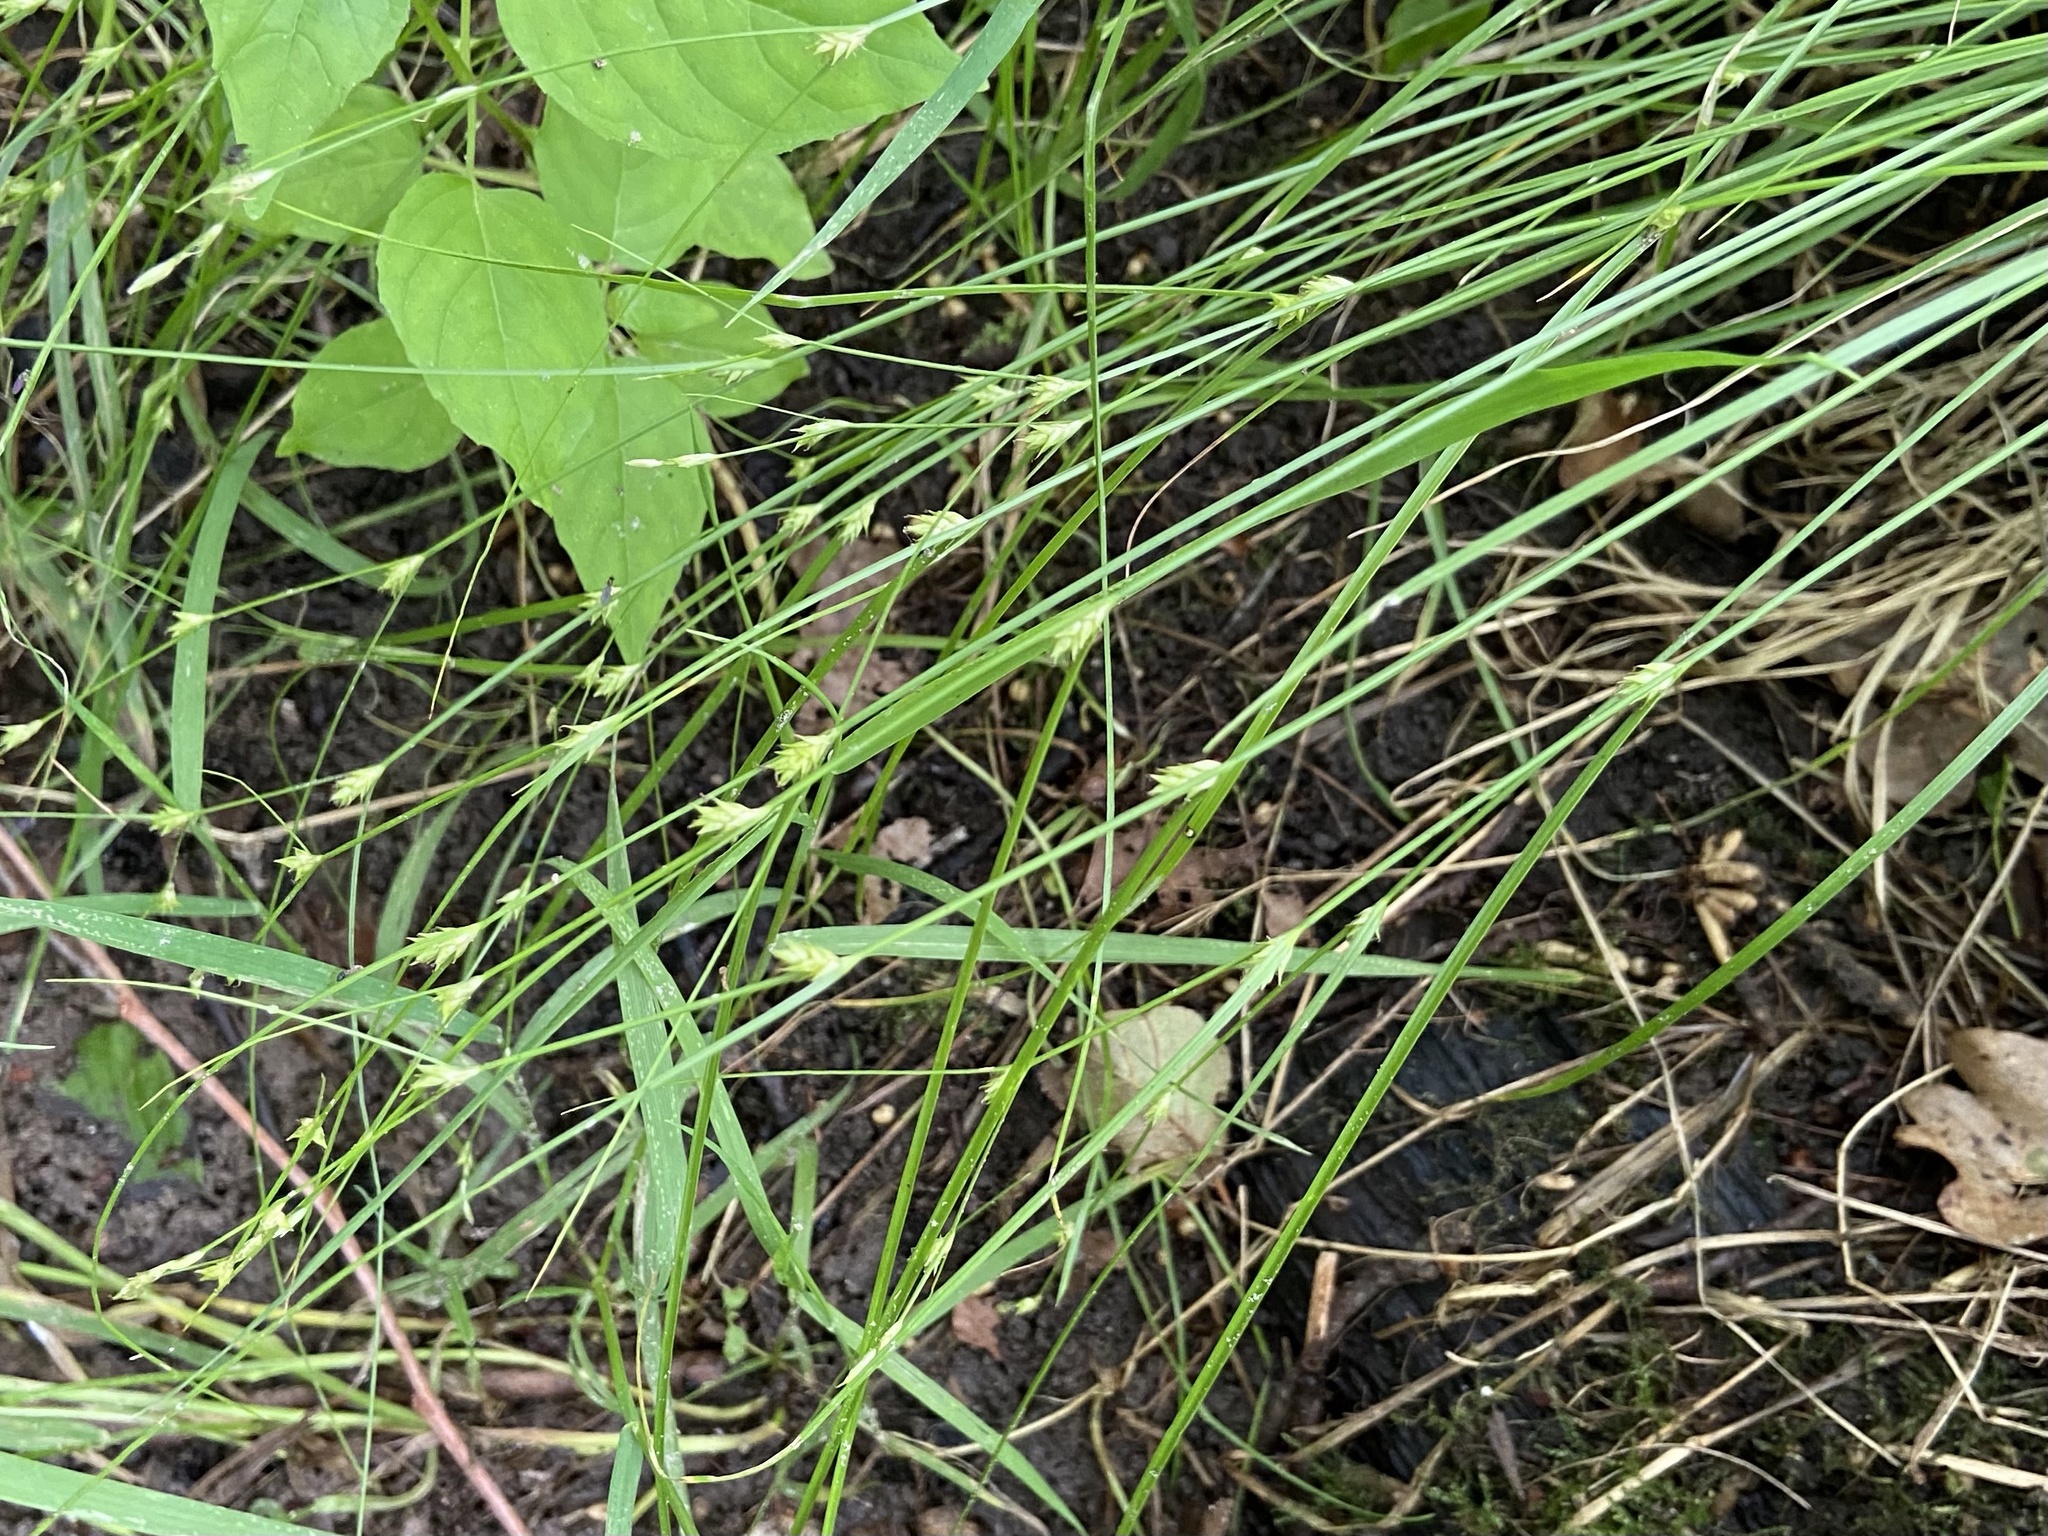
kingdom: Plantae
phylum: Tracheophyta
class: Liliopsida
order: Poales
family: Cyperaceae
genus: Carex
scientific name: Carex remota
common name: Remote sedge
